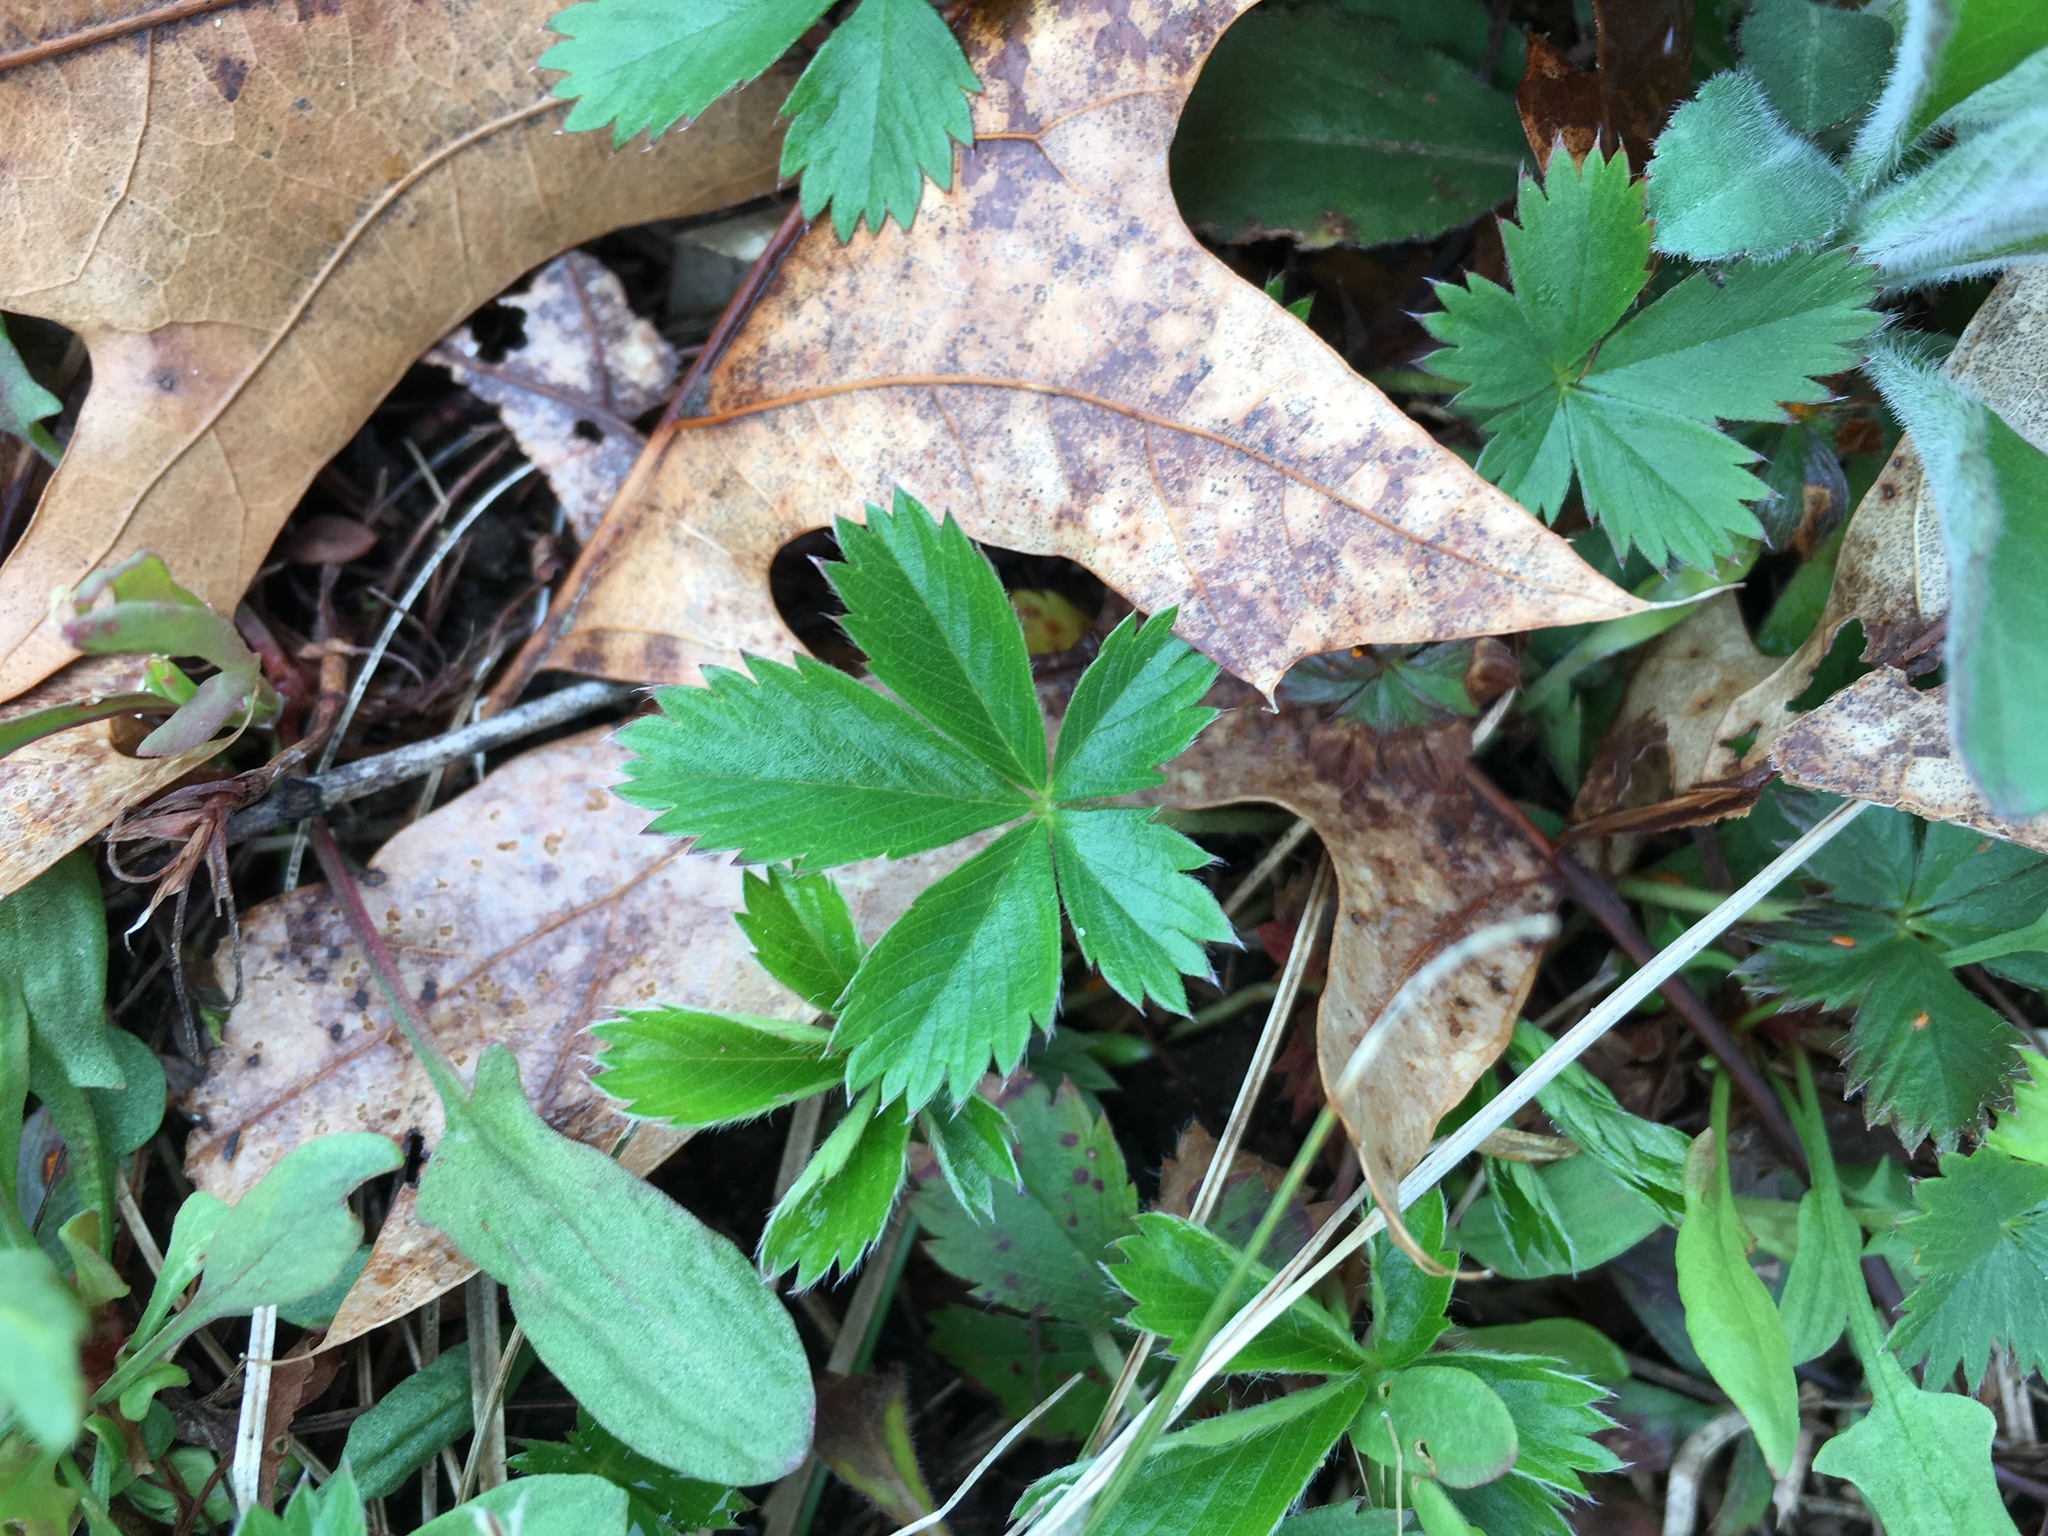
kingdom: Plantae
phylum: Tracheophyta
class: Magnoliopsida
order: Rosales
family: Rosaceae
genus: Potentilla
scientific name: Potentilla simplex
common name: Old field cinquefoil
